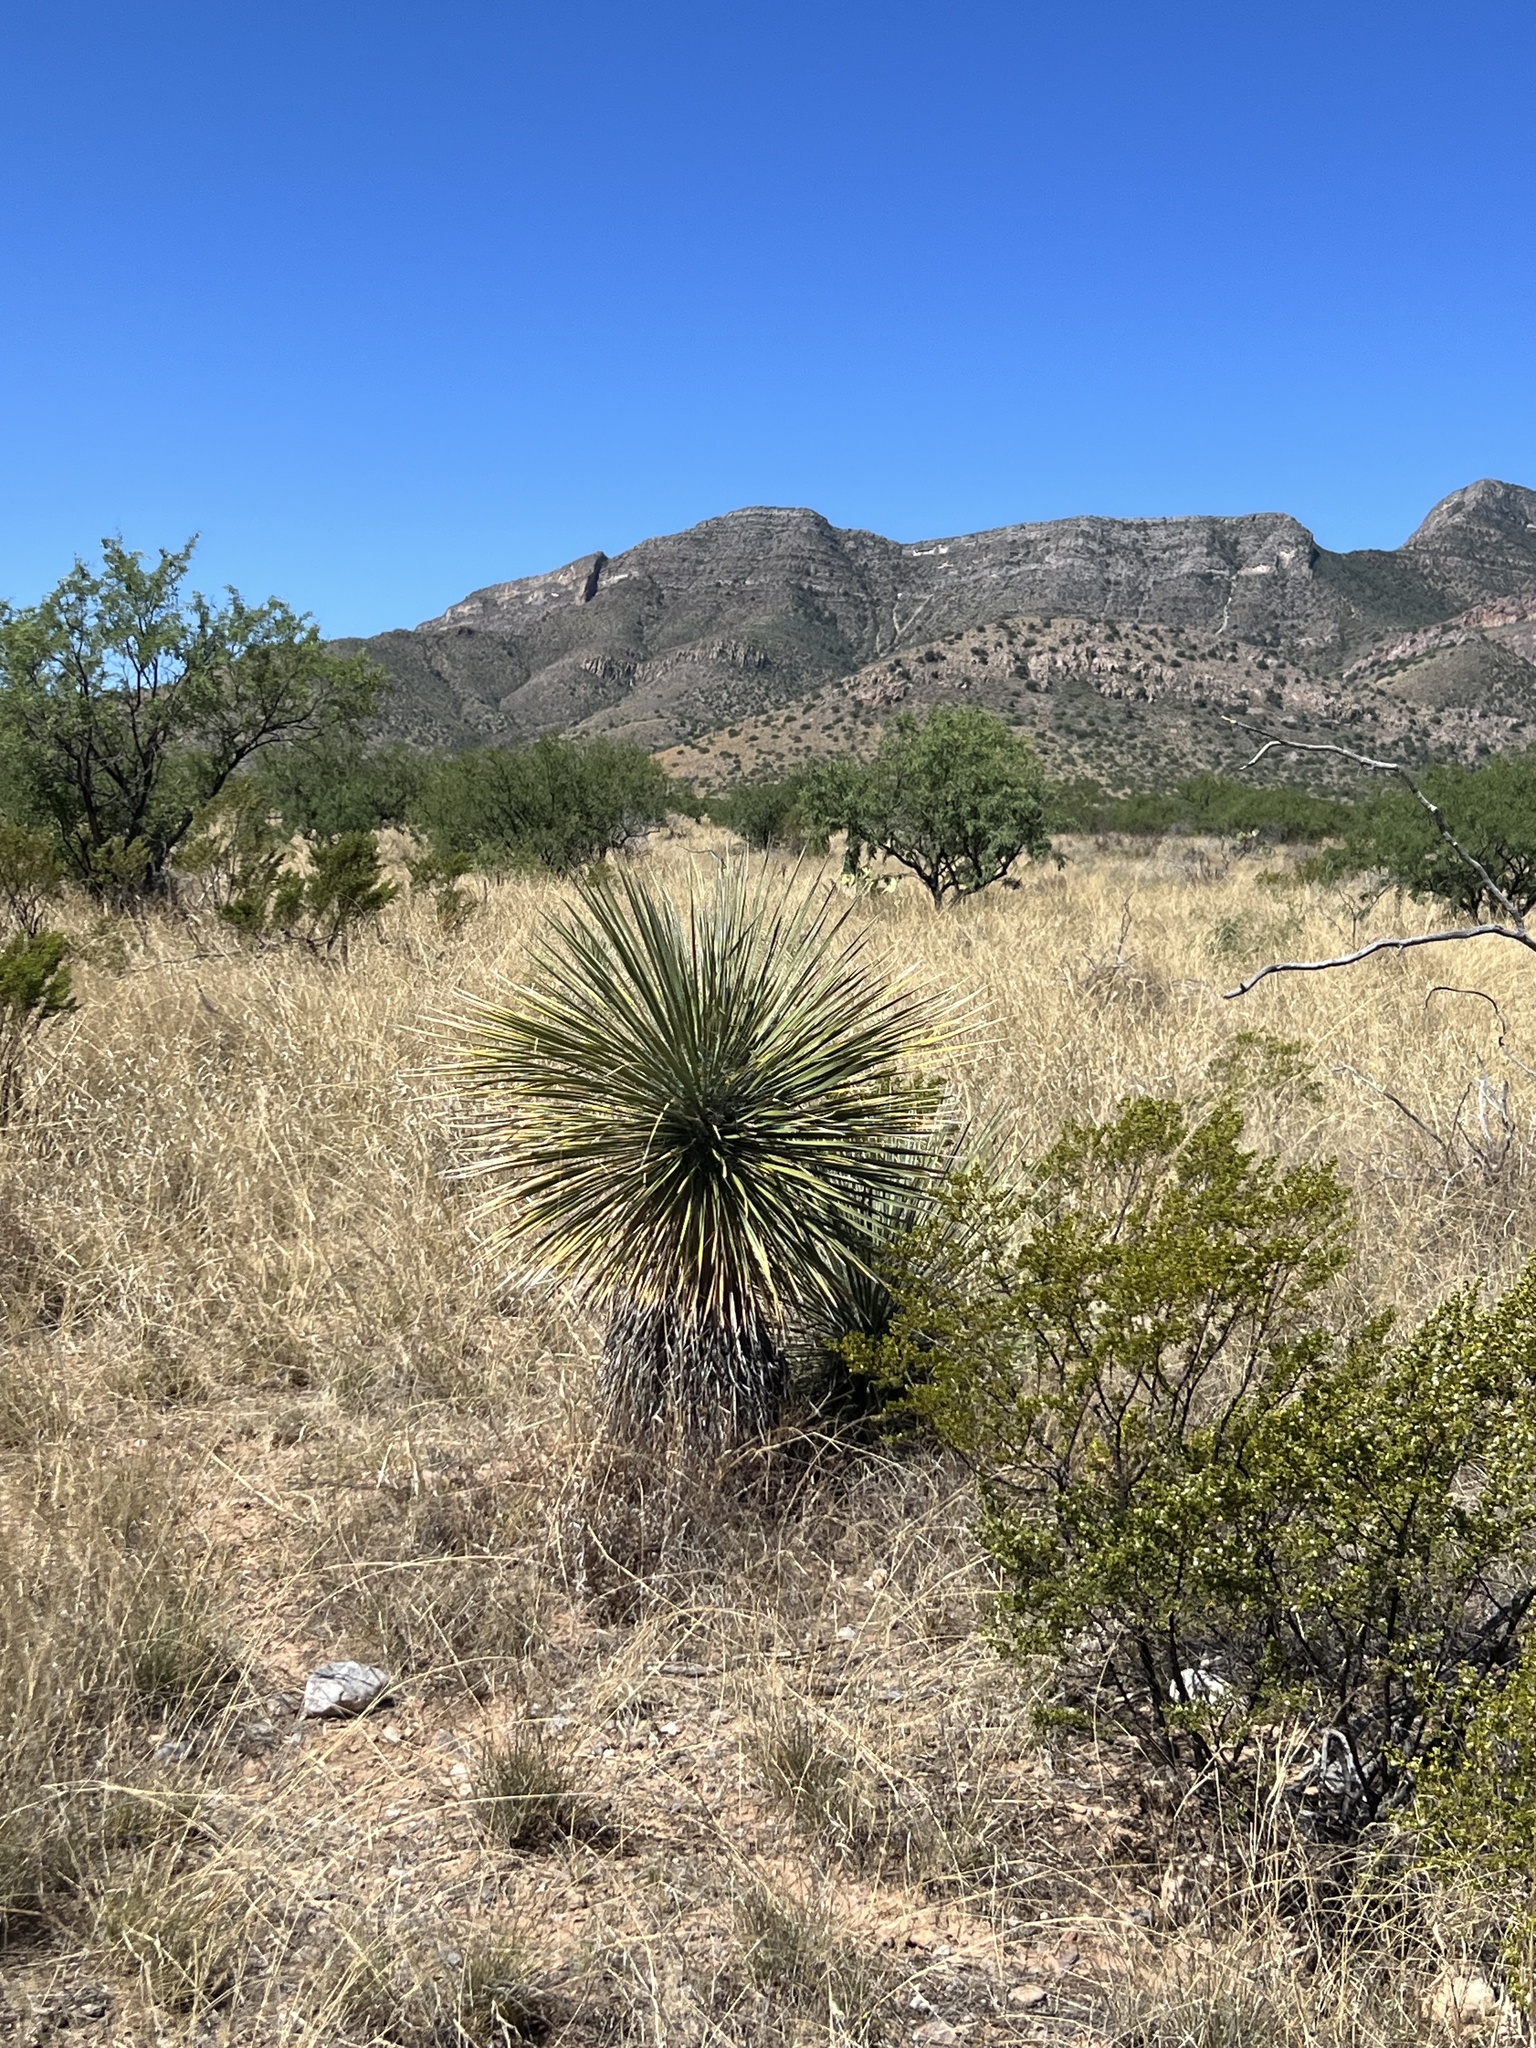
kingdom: Plantae
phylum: Tracheophyta
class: Liliopsida
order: Asparagales
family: Asparagaceae
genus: Yucca
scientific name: Yucca elata
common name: Palmella
